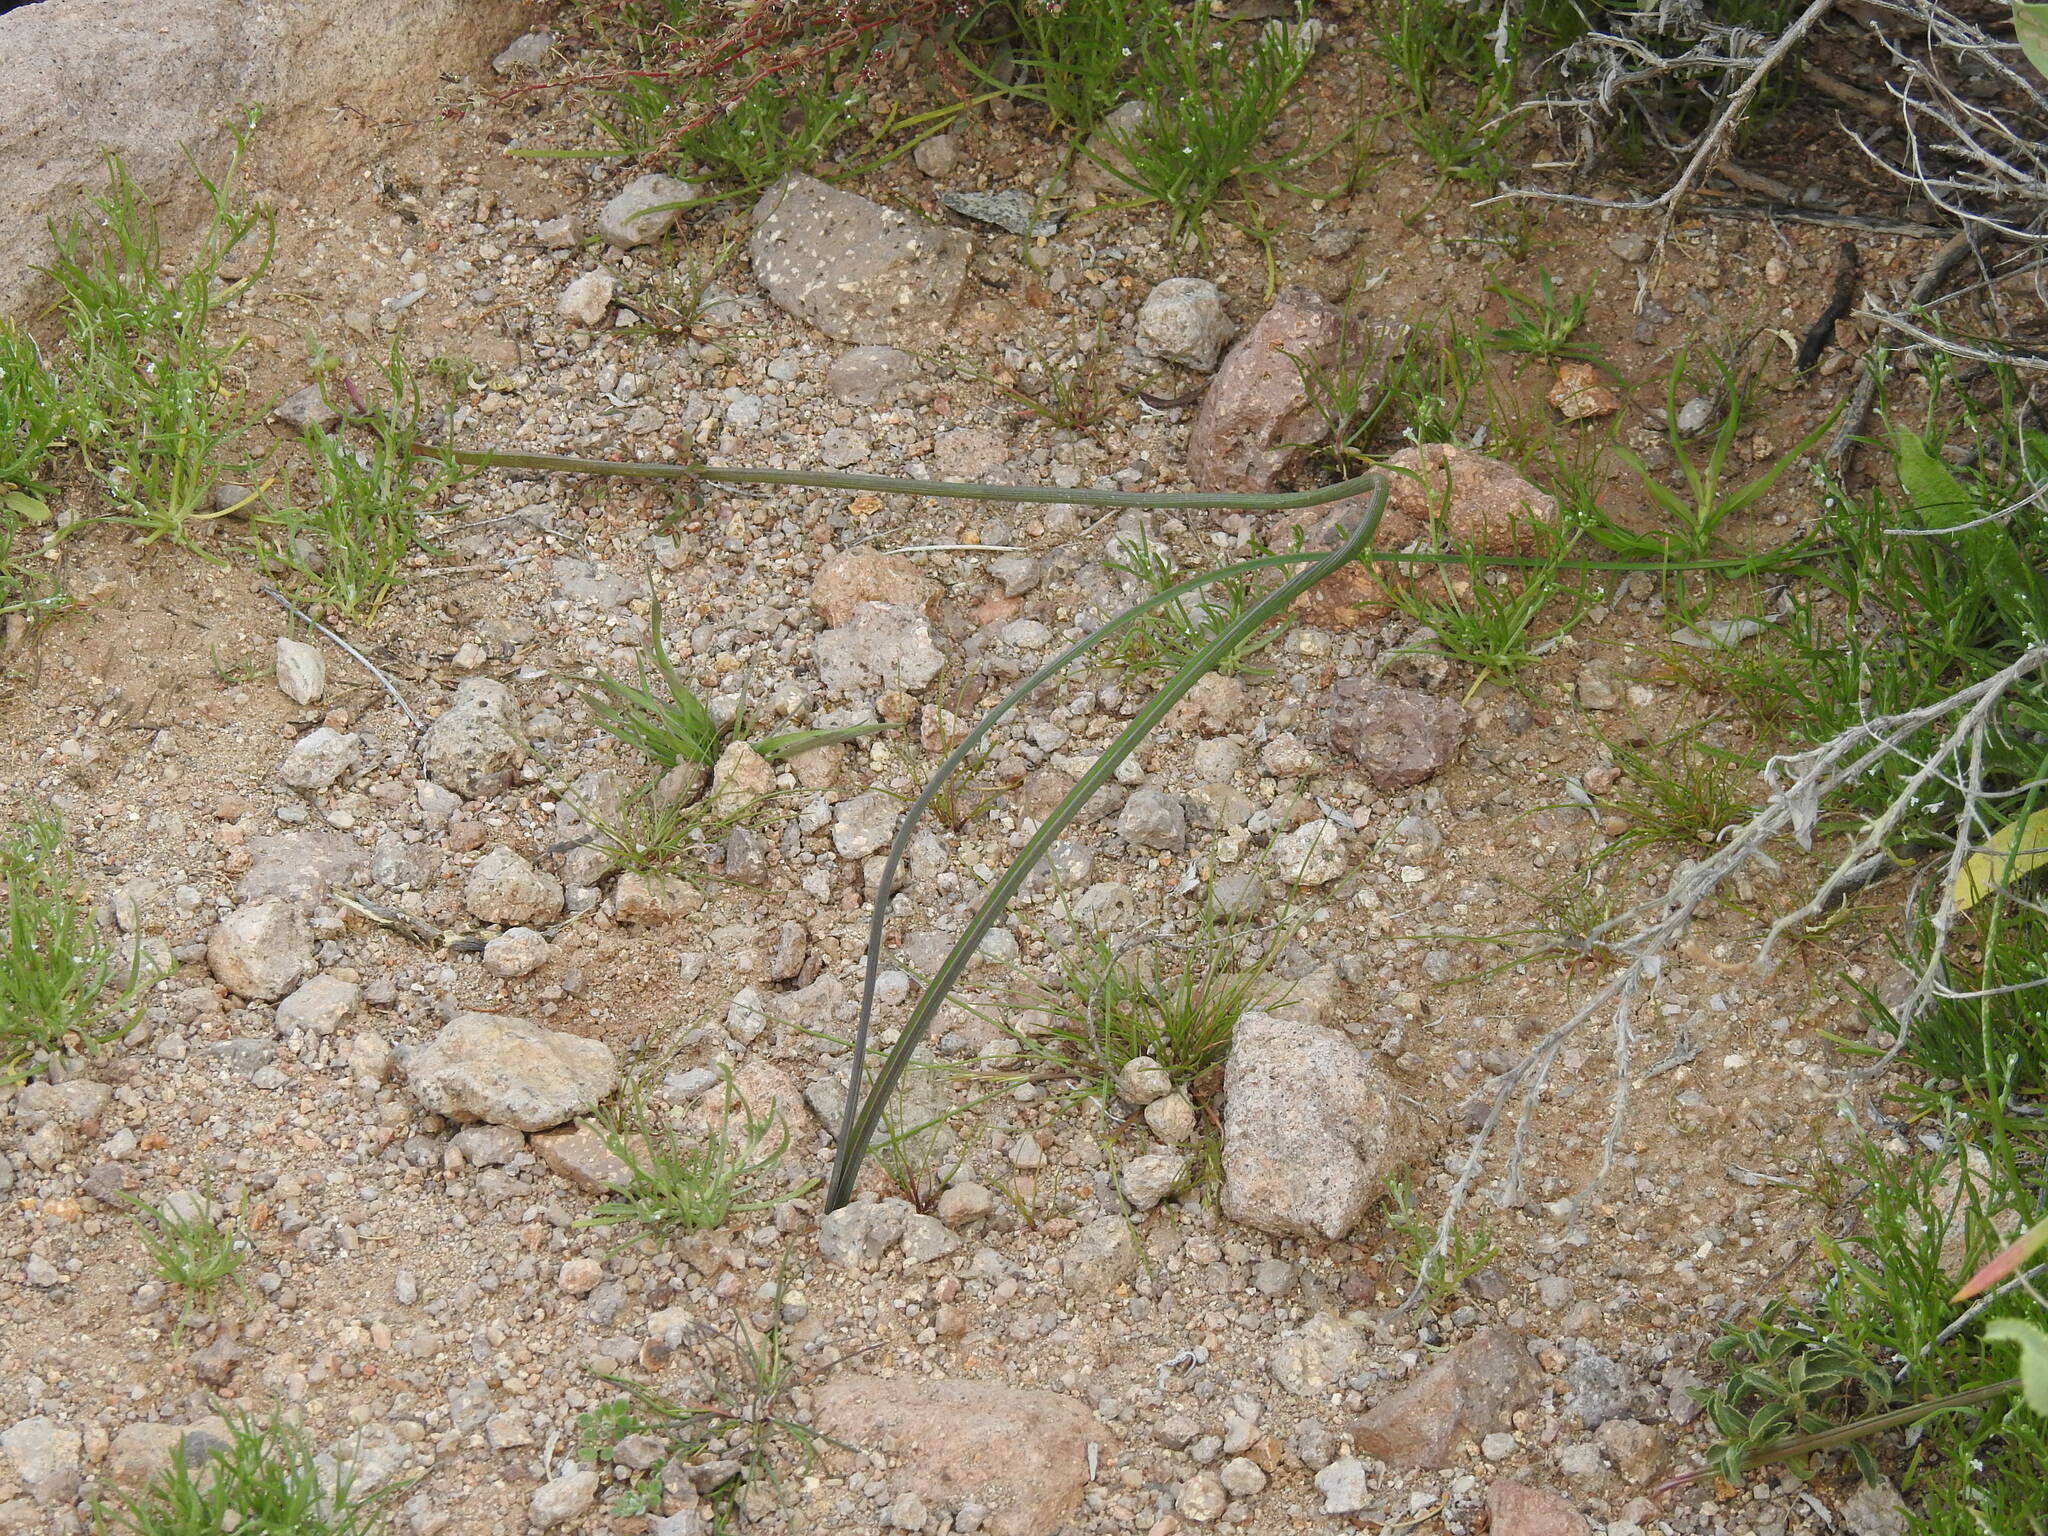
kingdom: Plantae
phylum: Tracheophyta
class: Liliopsida
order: Asparagales
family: Asparagaceae
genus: Dipterostemon
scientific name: Dipterostemon capitatus
